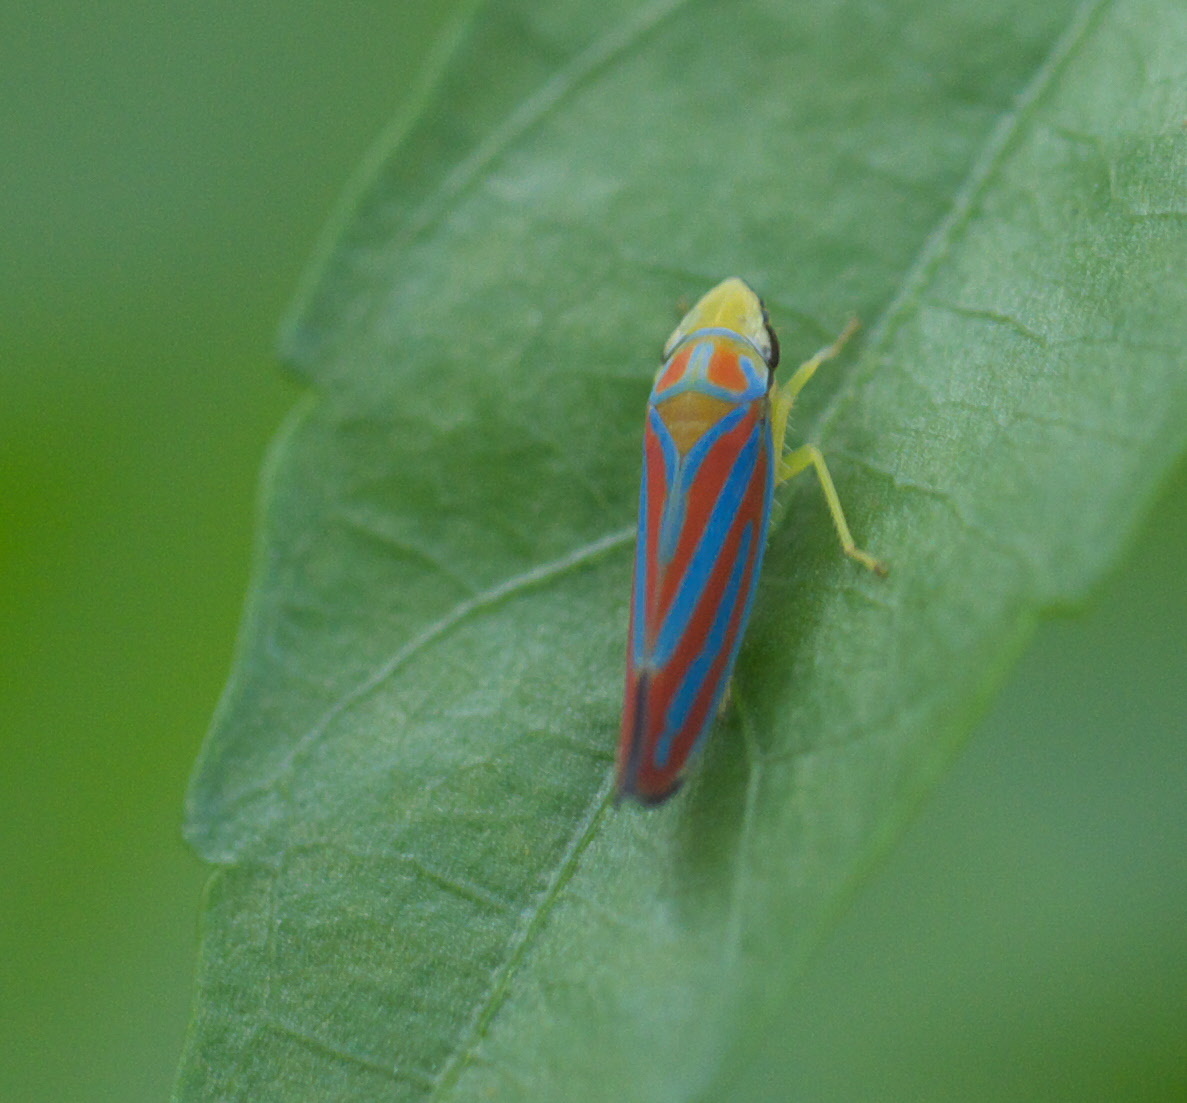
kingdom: Animalia
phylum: Arthropoda
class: Insecta
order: Hemiptera
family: Cicadellidae
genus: Graphocephala
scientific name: Graphocephala coccinea
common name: Candy-striped leafhopper
